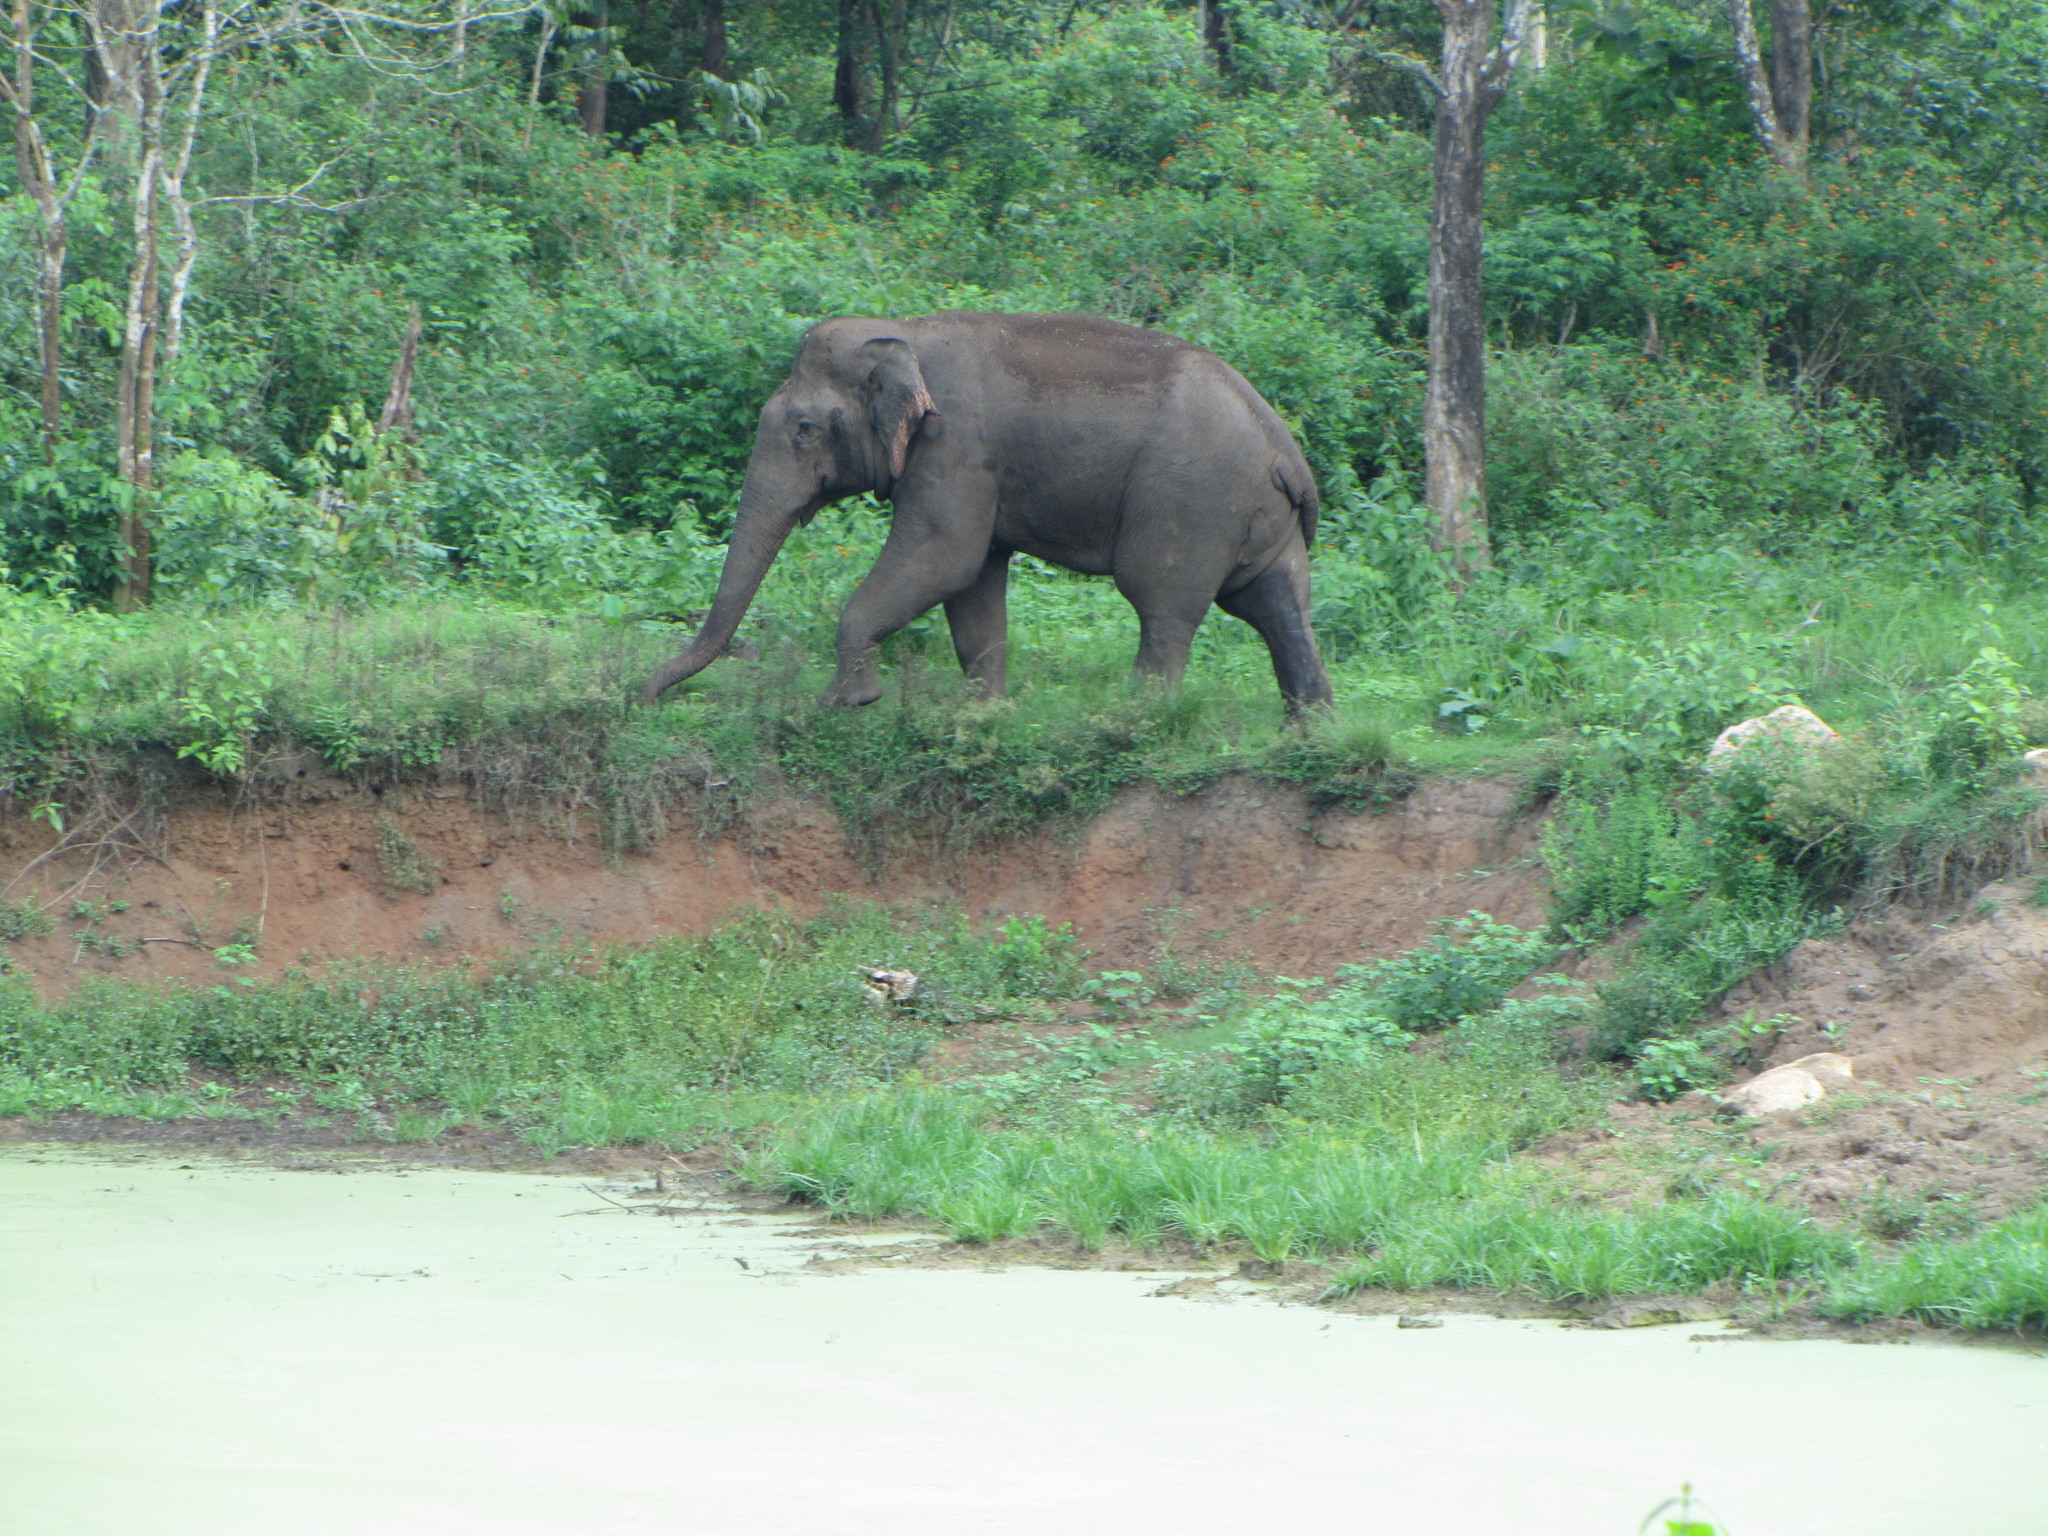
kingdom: Animalia
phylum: Chordata
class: Mammalia
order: Proboscidea
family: Elephantidae
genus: Elephas
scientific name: Elephas maximus
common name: Asian elephant
